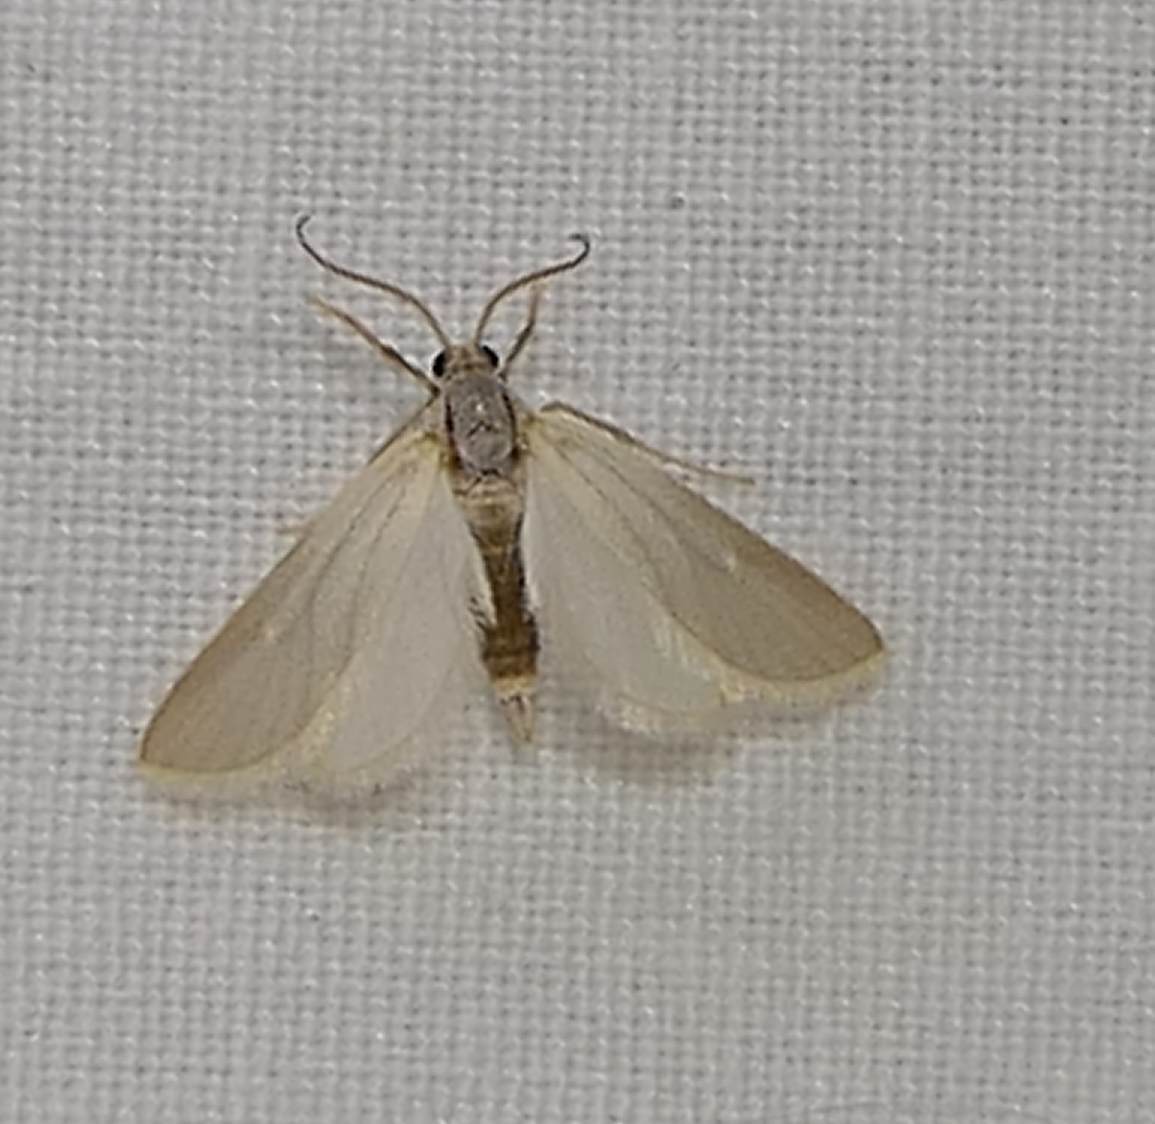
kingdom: Animalia
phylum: Arthropoda
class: Insecta
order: Lepidoptera
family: Crambidae
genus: Acentria
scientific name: Acentria ephemerella
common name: European water moth
